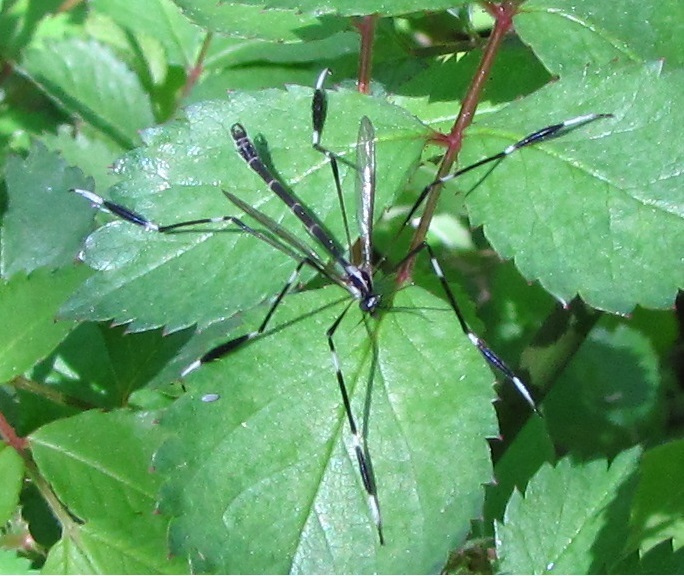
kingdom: Animalia
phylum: Arthropoda
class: Insecta
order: Diptera
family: Ptychopteridae
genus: Bittacomorpha
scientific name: Bittacomorpha clavipes
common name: Eastern phantom crane fly
